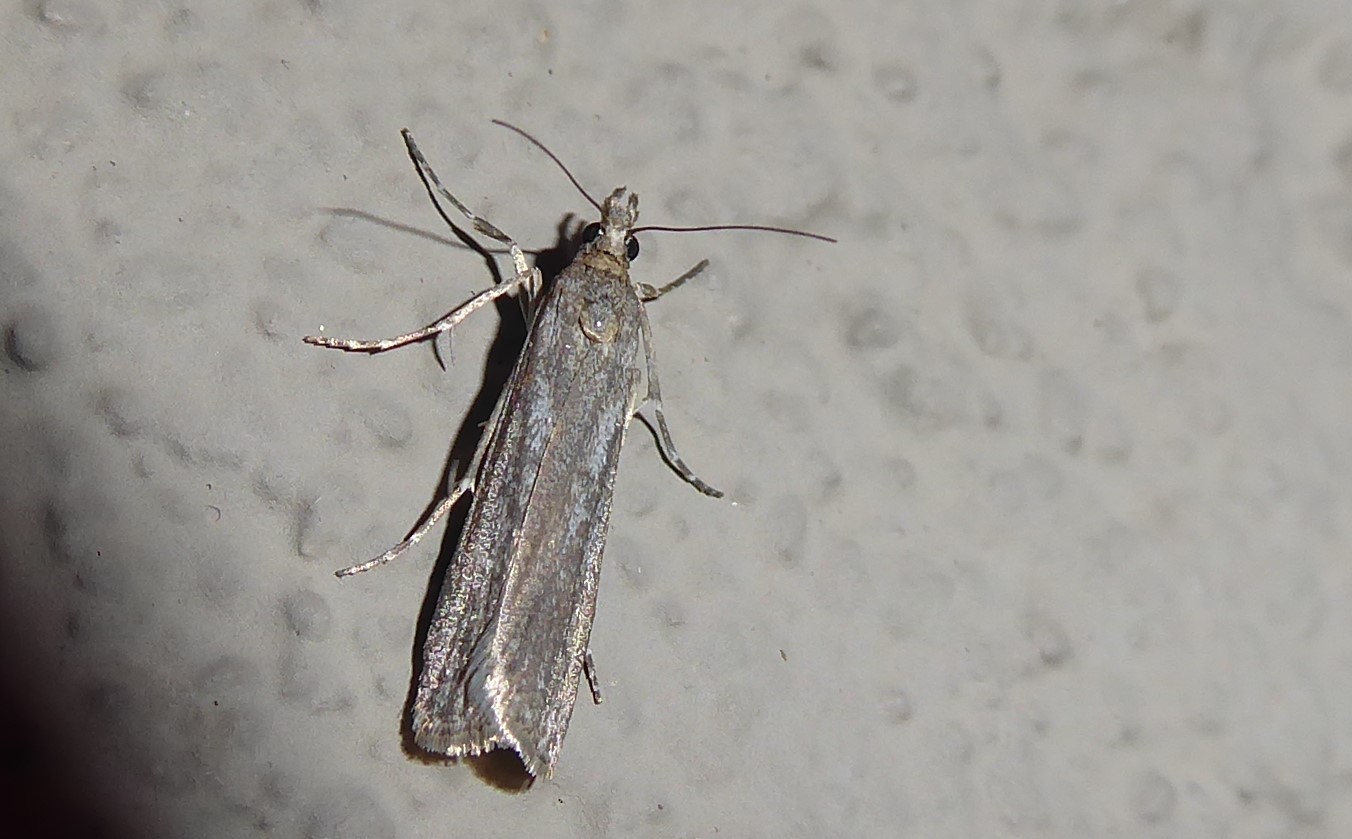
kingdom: Animalia
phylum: Arthropoda
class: Insecta
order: Lepidoptera
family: Crambidae
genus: Eudonia
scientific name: Eudonia leptalea
